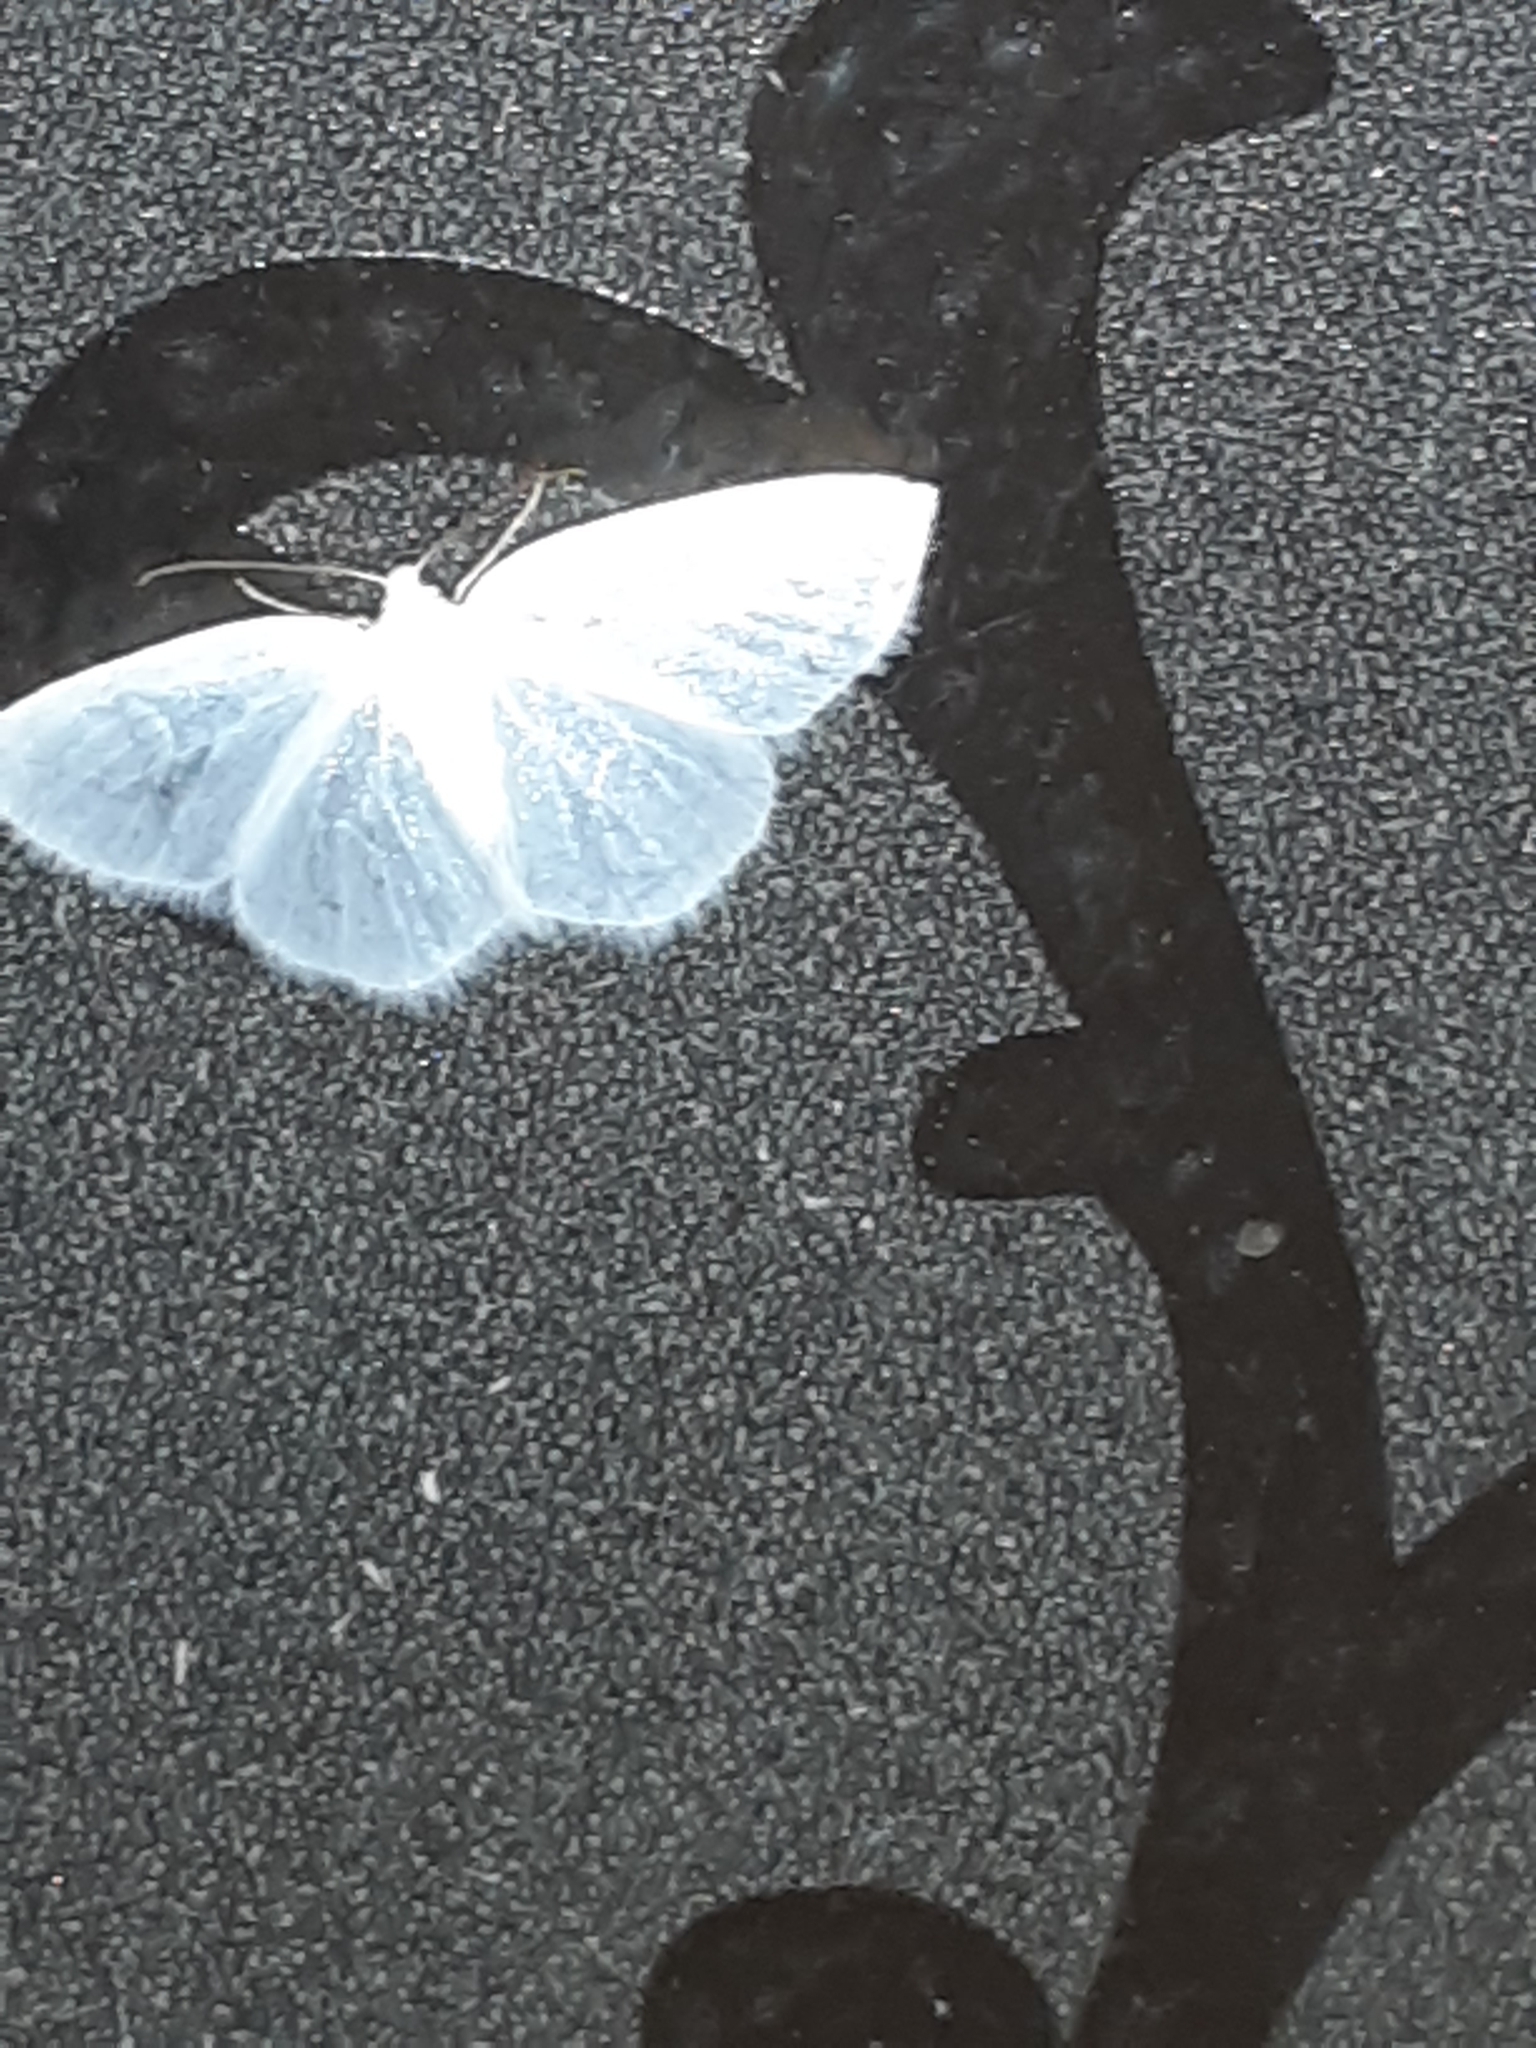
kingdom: Animalia
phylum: Arthropoda
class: Insecta
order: Lepidoptera
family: Geometridae
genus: Lomographa
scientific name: Lomographa vestaliata
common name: White spring moth
